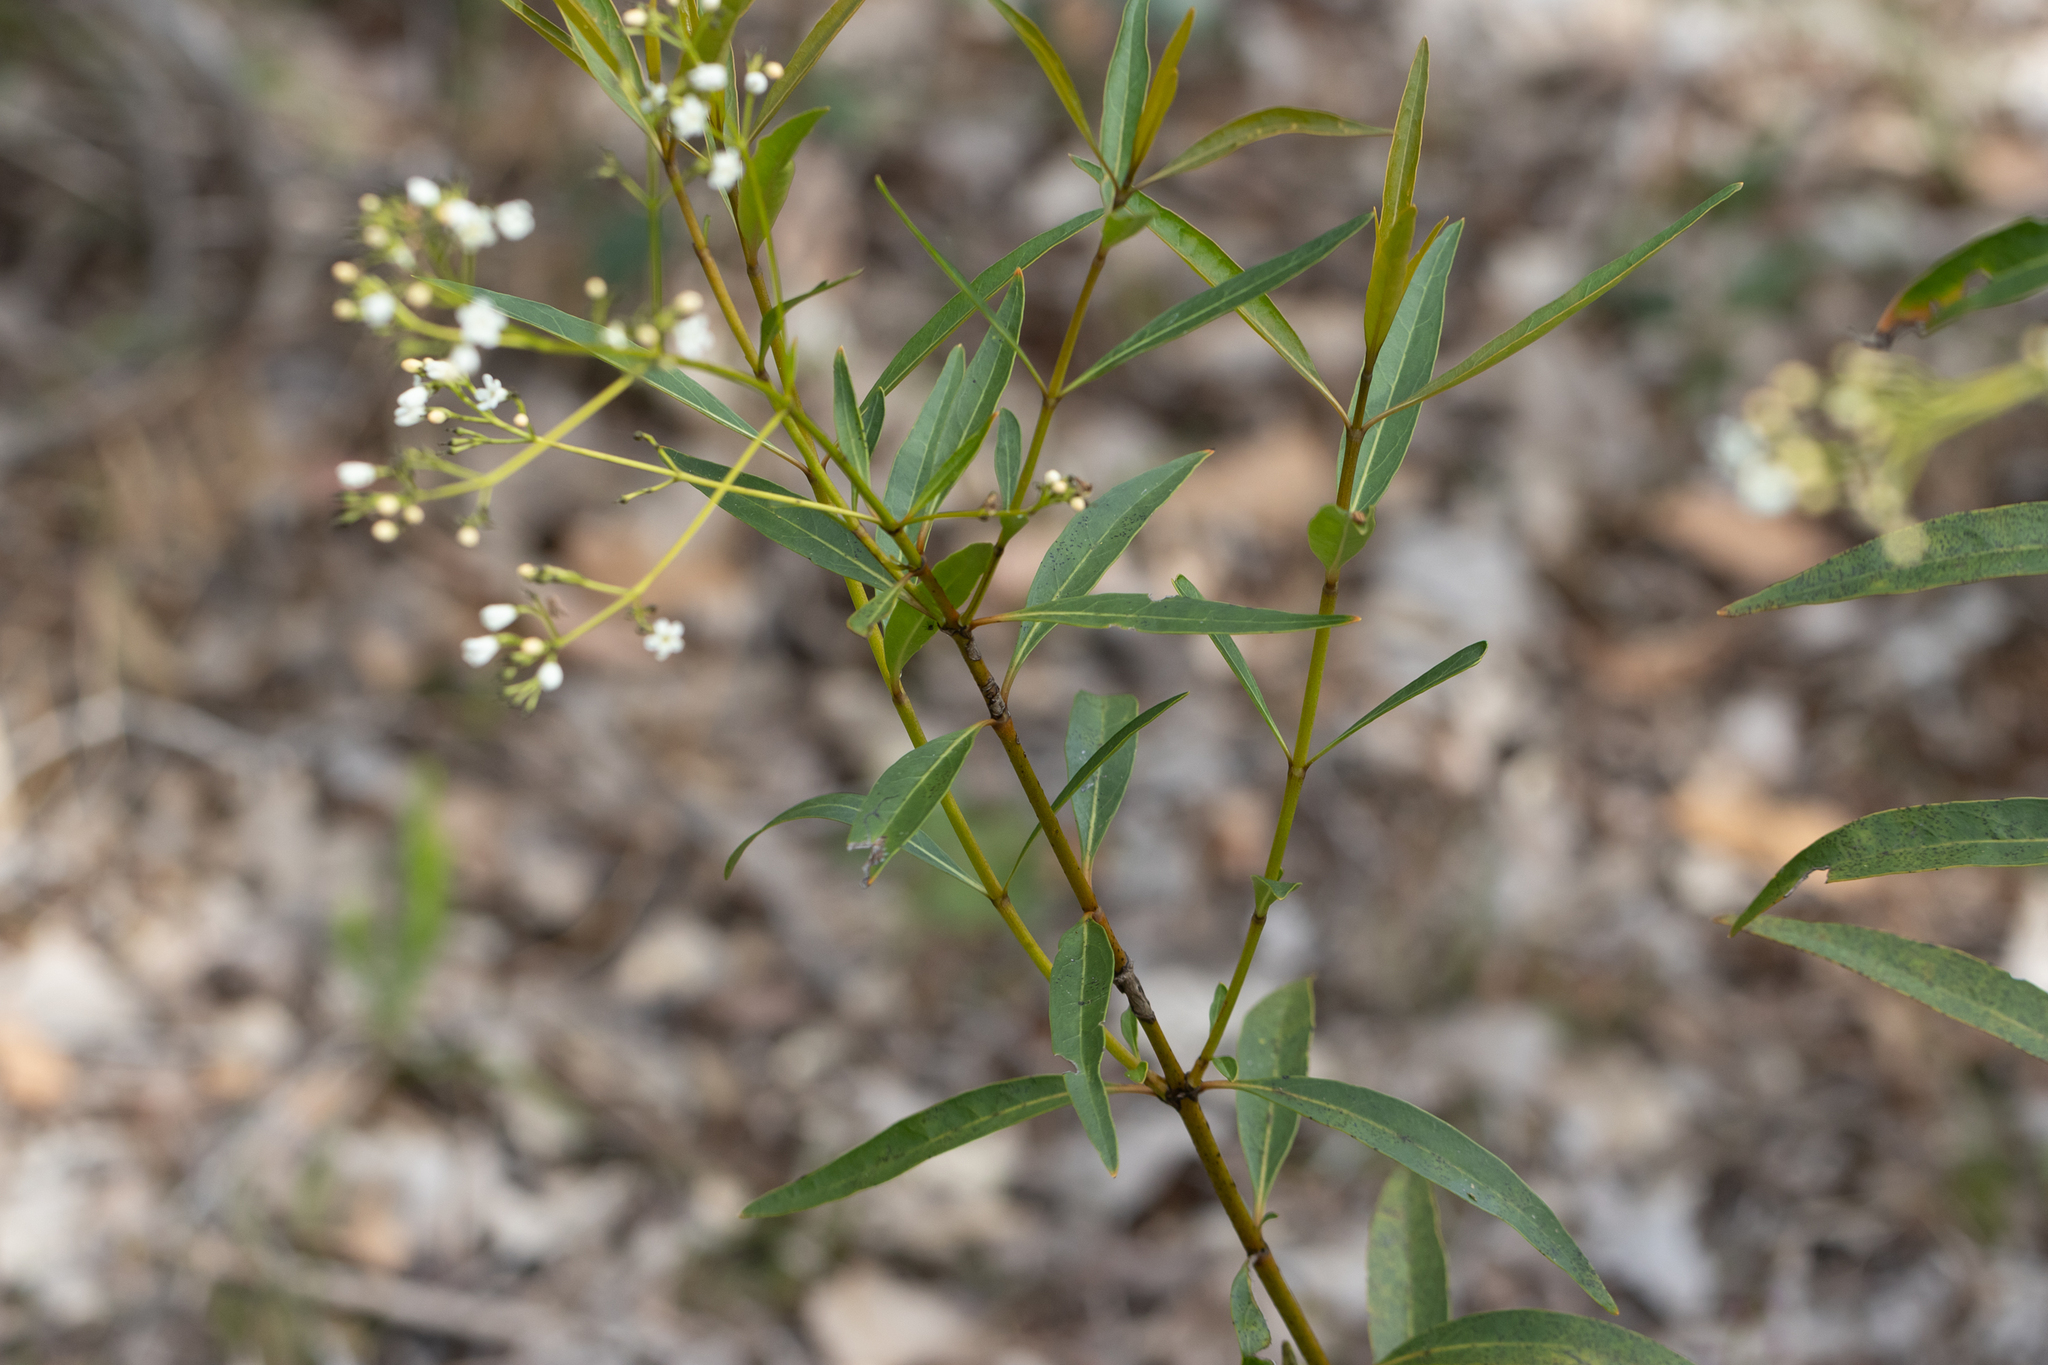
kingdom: Plantae
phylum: Tracheophyta
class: Magnoliopsida
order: Gentianales
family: Loganiaceae
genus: Logania
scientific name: Logania vaginalis
